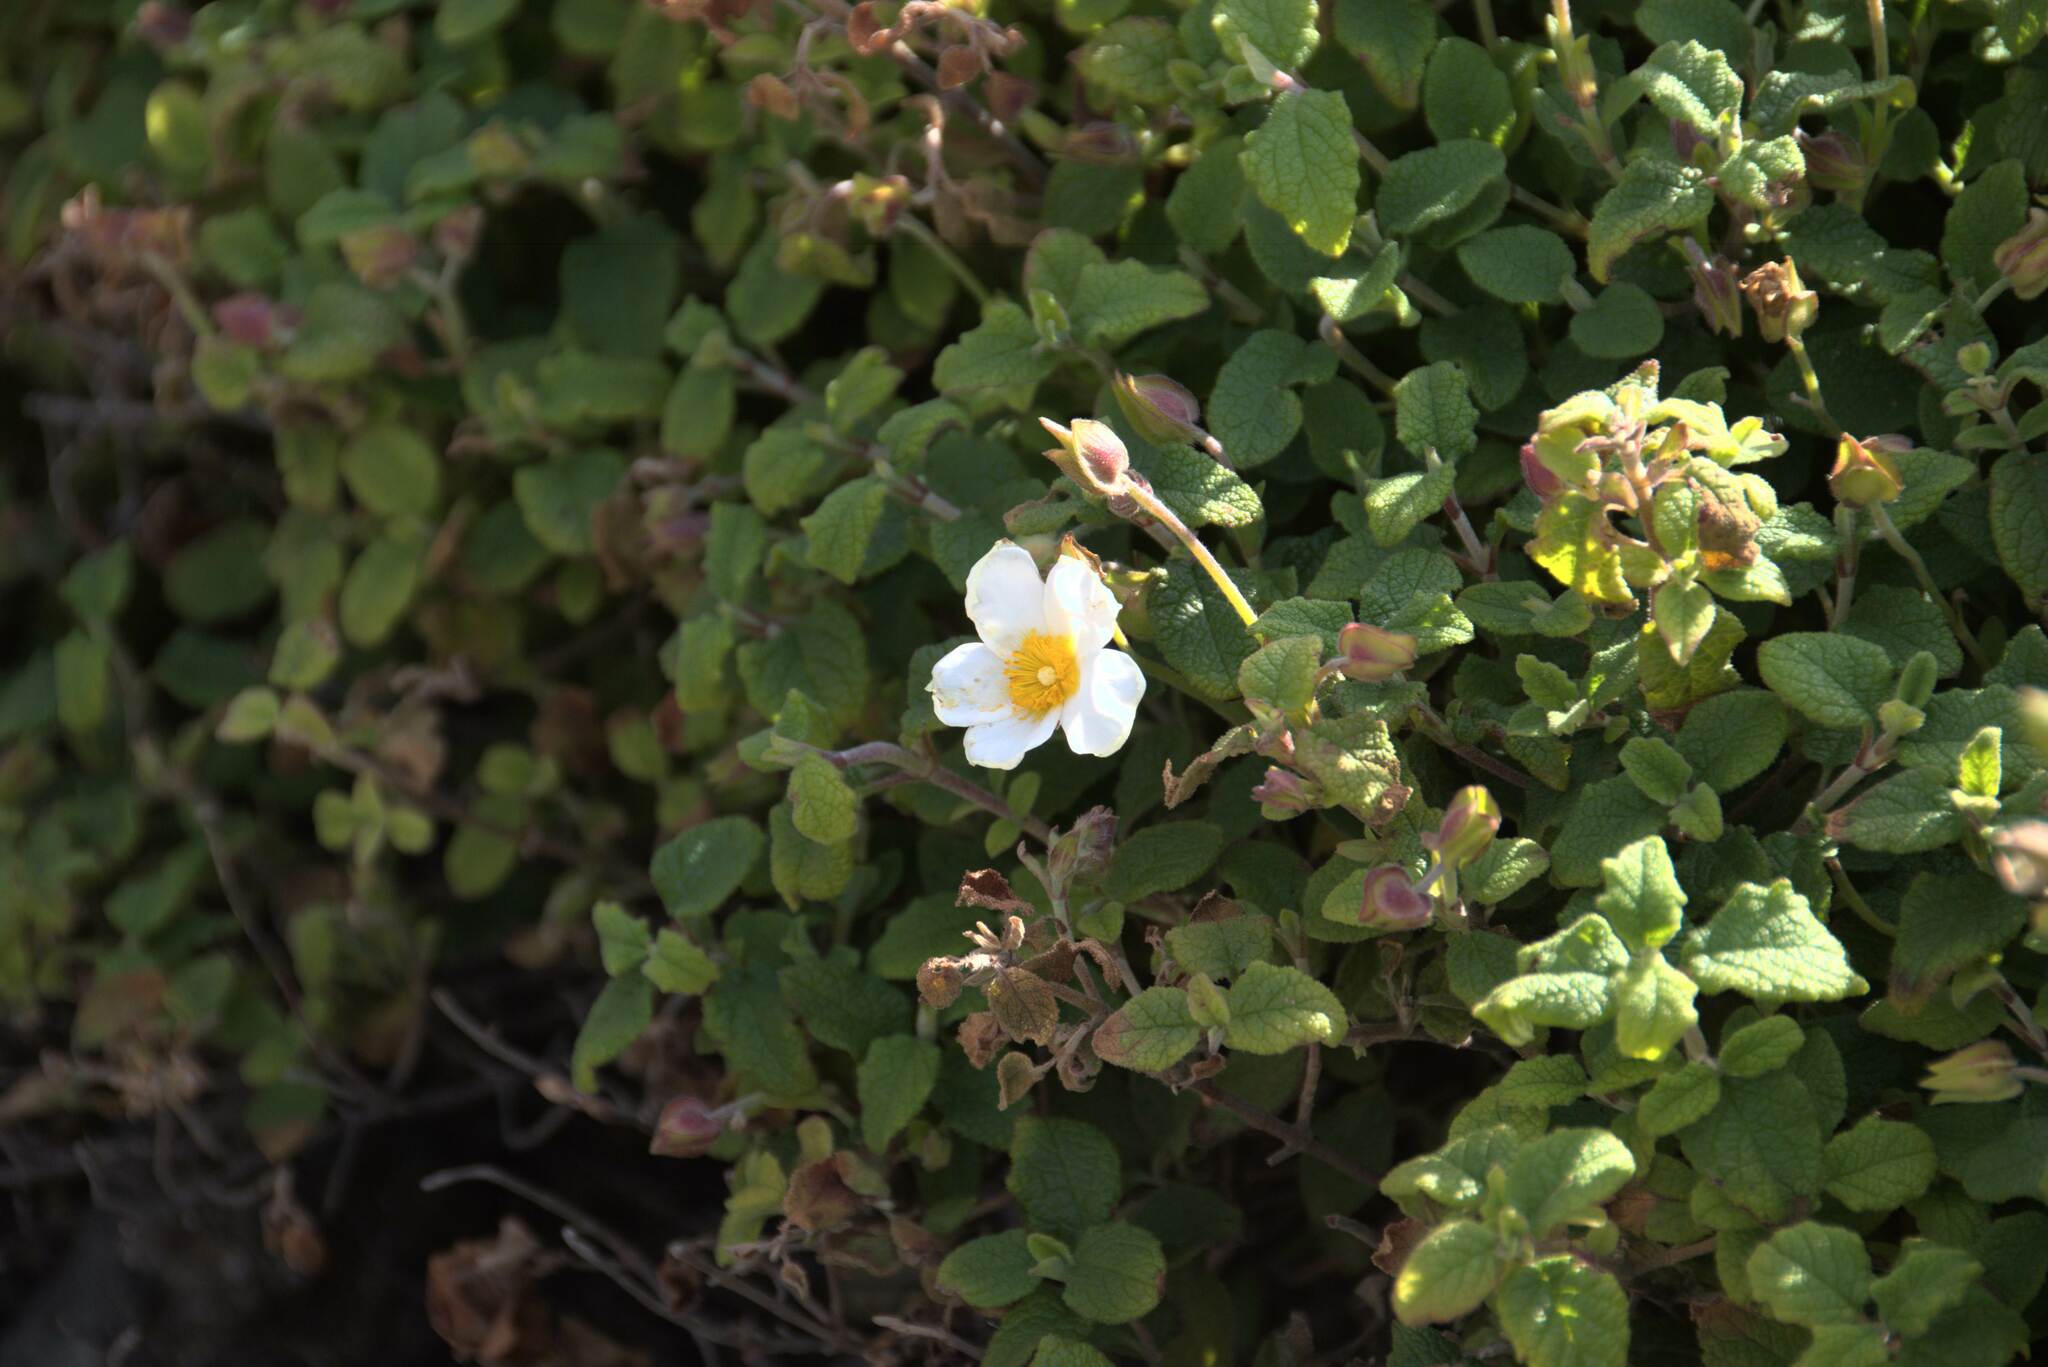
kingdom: Plantae
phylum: Tracheophyta
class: Magnoliopsida
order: Malvales
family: Cistaceae
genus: Cistus
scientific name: Cistus salviifolius
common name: Salvia cistus
